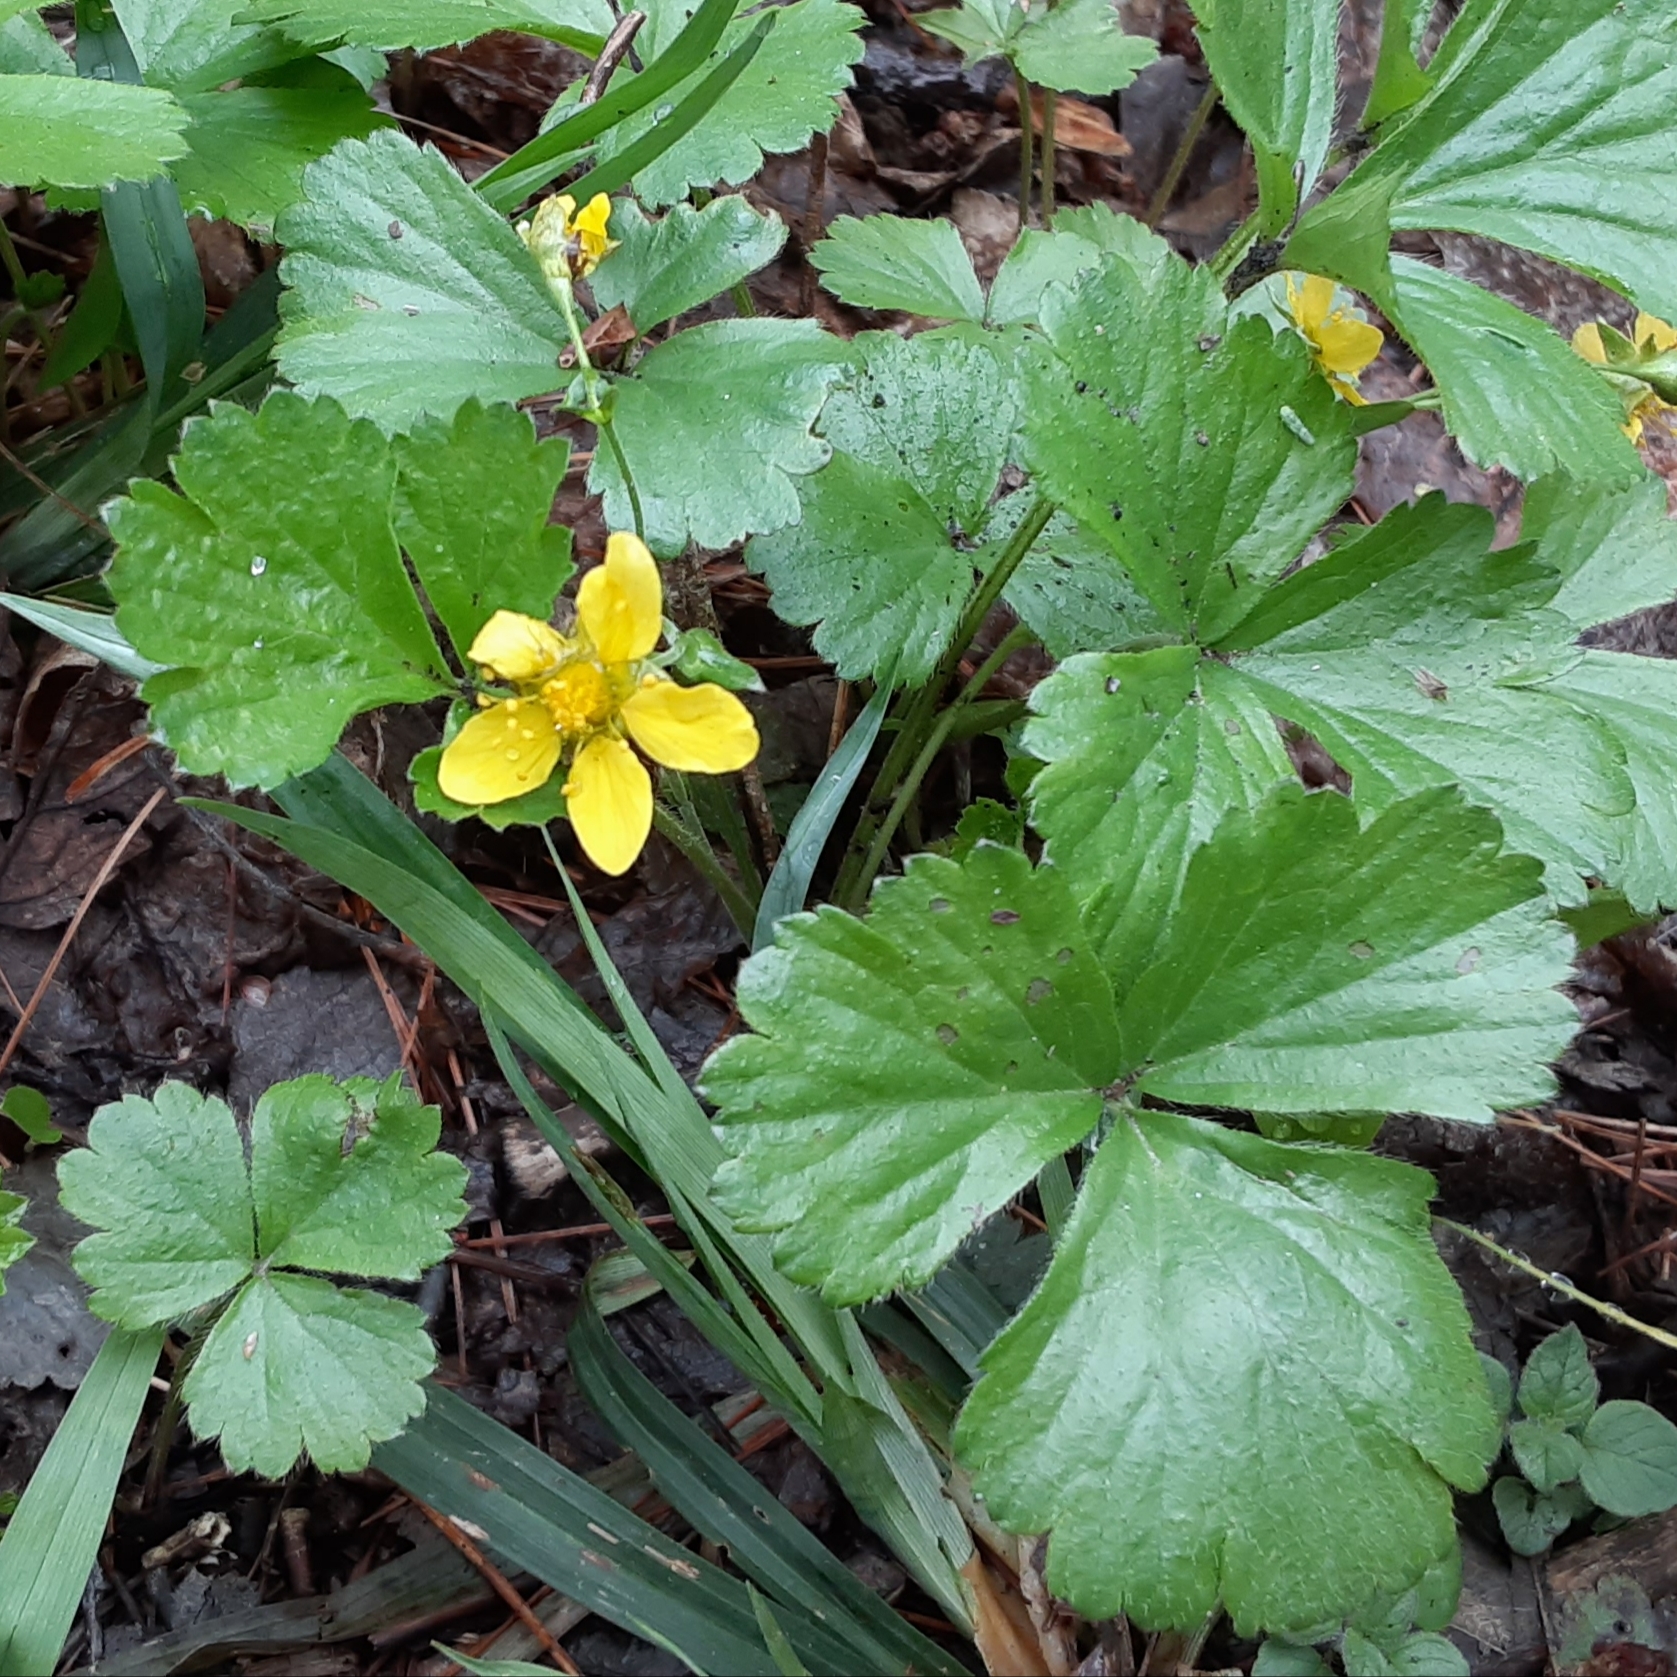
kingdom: Plantae
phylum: Tracheophyta
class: Magnoliopsida
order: Rosales
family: Rosaceae
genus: Geum
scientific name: Geum fragarioides
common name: Appalachian barren strawberry
